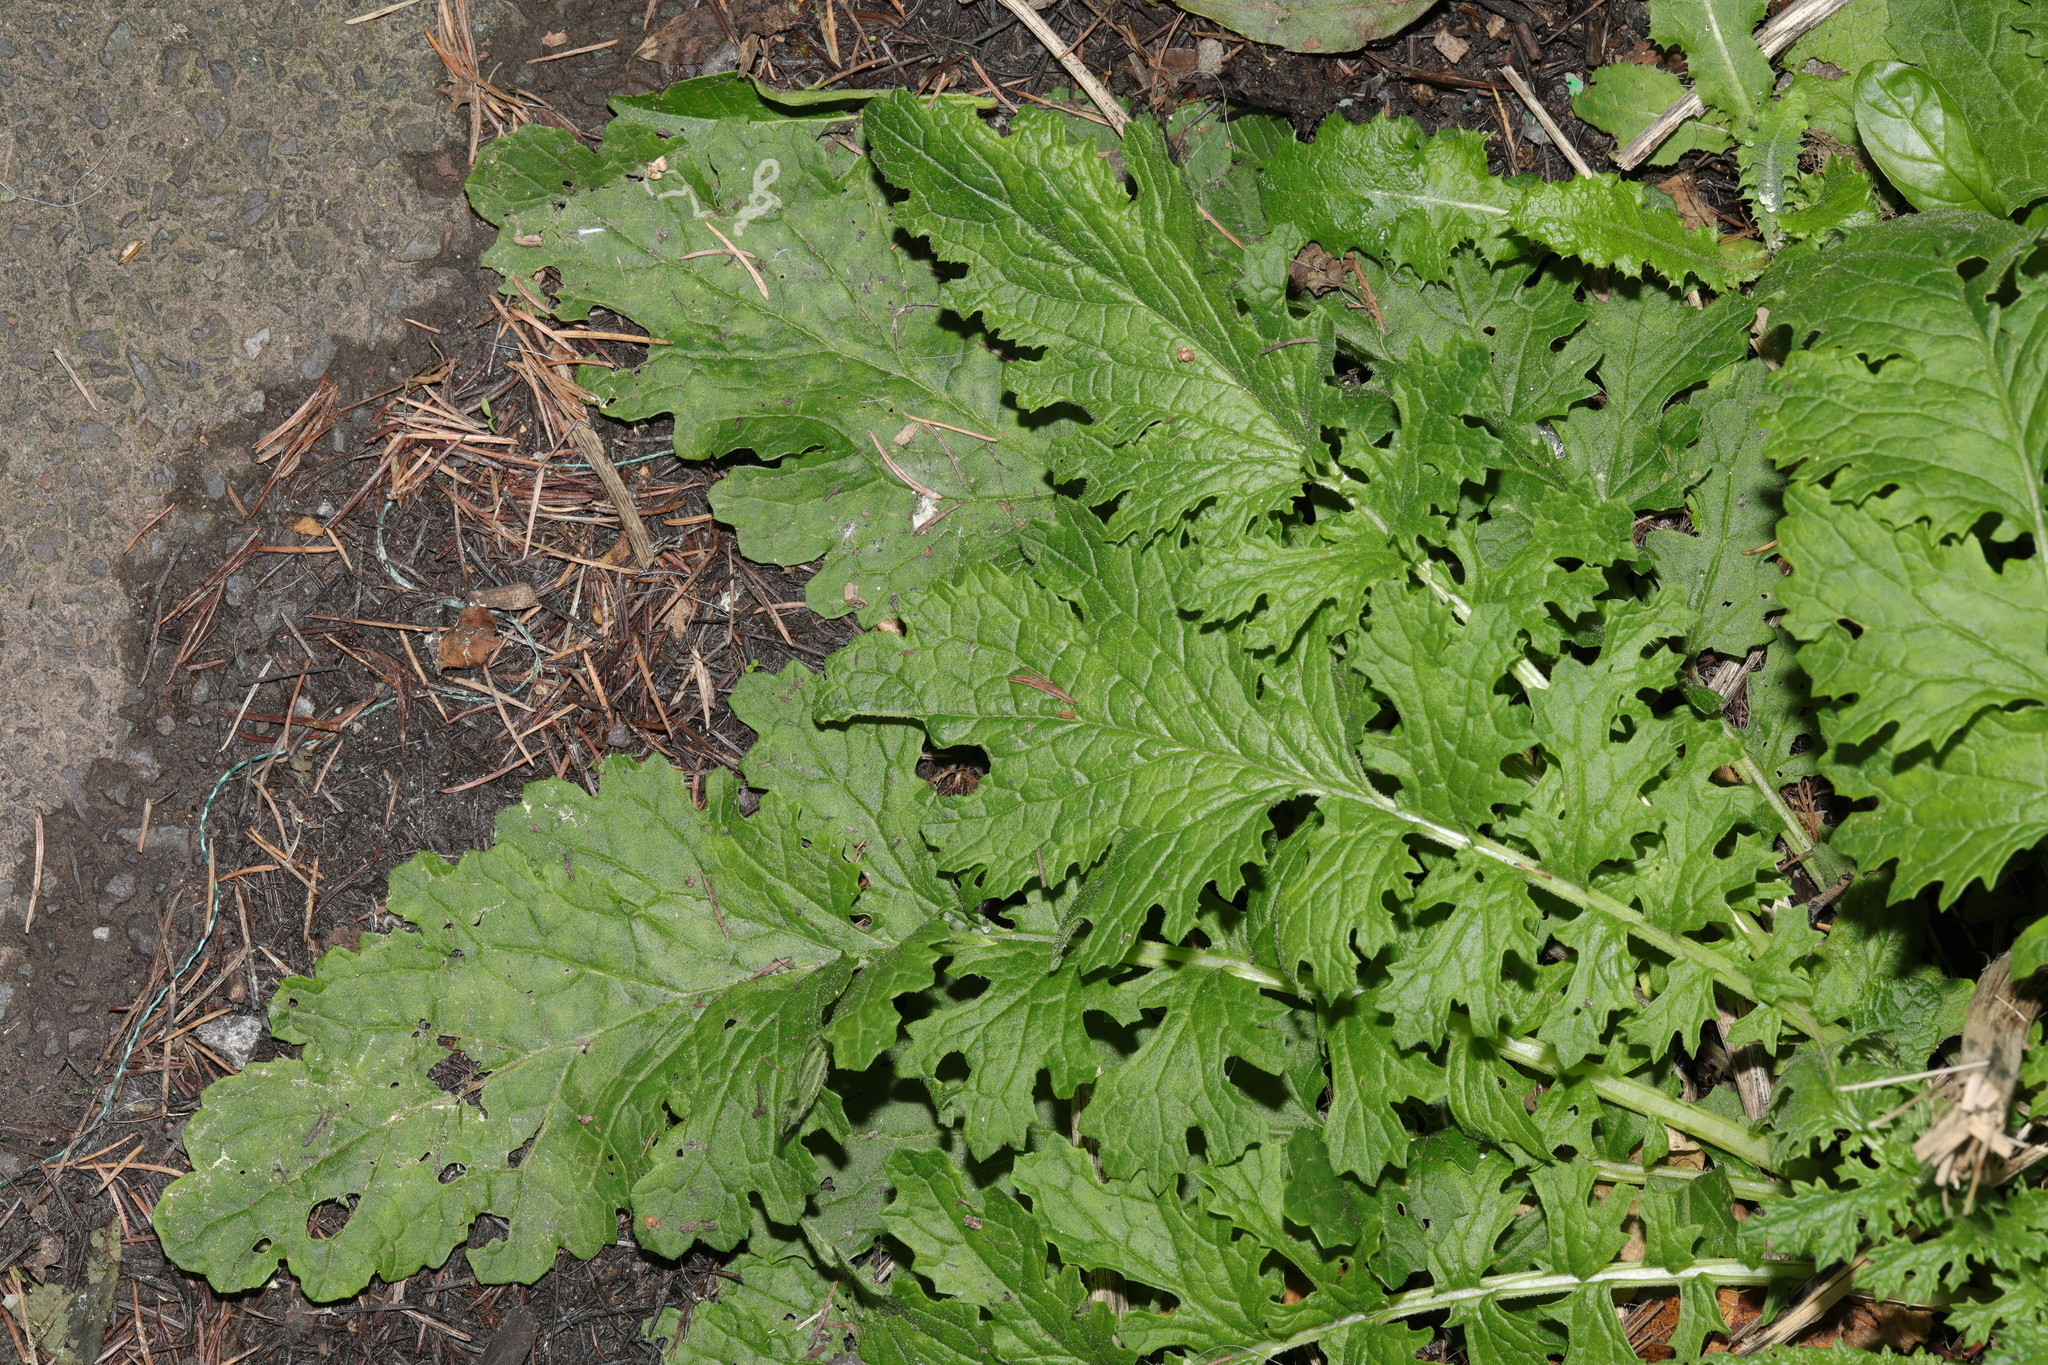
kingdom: Plantae
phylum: Tracheophyta
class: Magnoliopsida
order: Asterales
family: Asteraceae
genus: Jacobaea
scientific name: Jacobaea vulgaris
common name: Stinking willie
